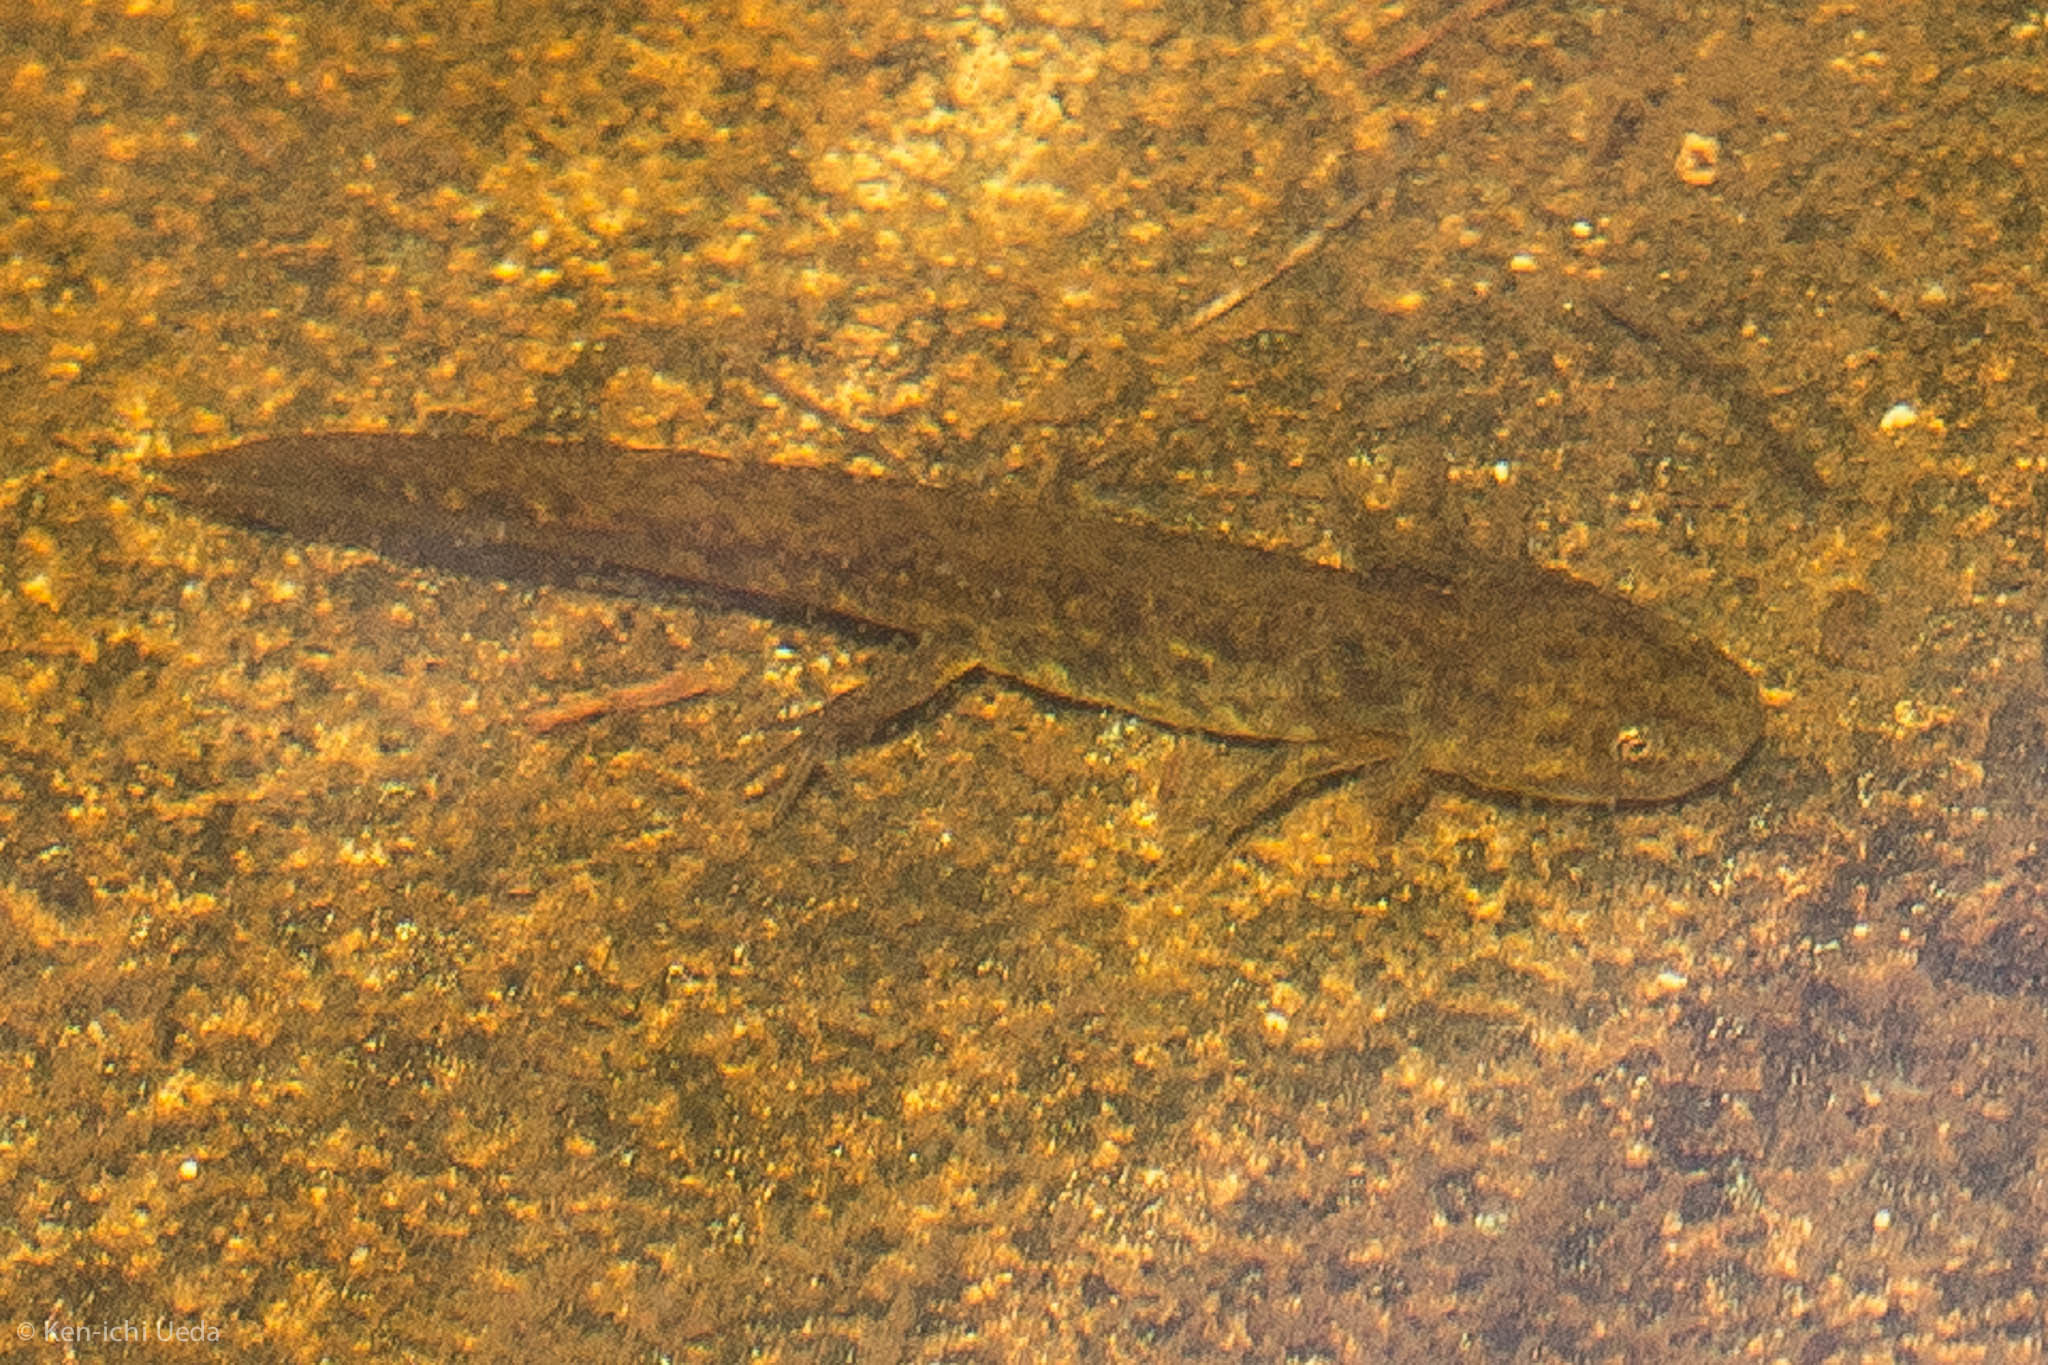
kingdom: Animalia
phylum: Chordata
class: Amphibia
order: Caudata
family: Ambystomatidae
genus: Ambystoma
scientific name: Ambystoma macrodactylum
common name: Long-toed salamander
